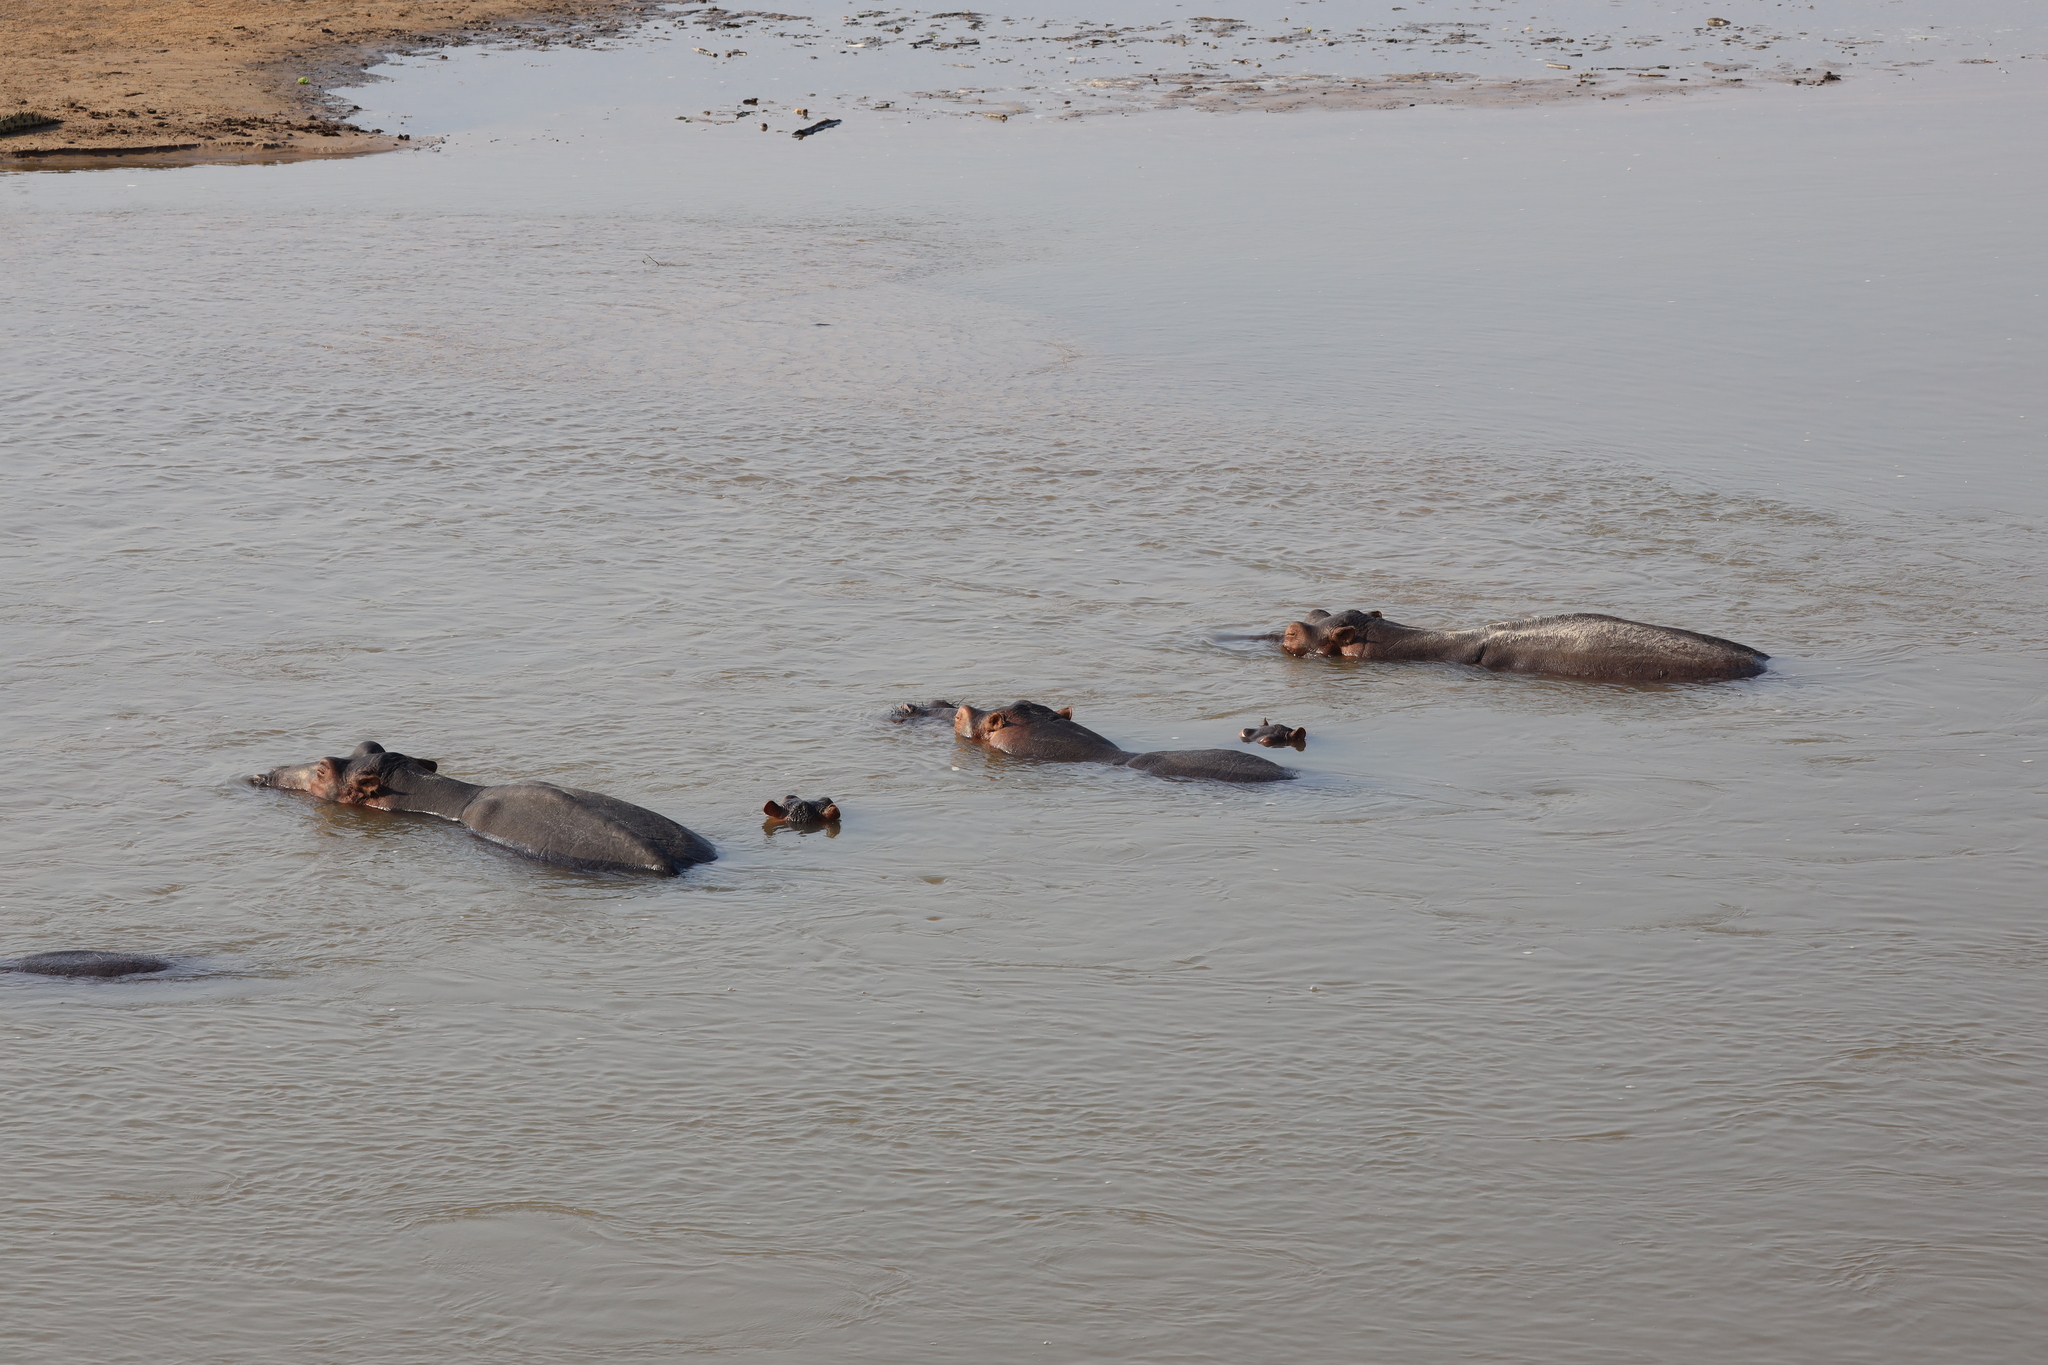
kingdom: Animalia
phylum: Chordata
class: Mammalia
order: Artiodactyla
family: Hippopotamidae
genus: Hippopotamus
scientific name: Hippopotamus amphibius
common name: Common hippopotamus
